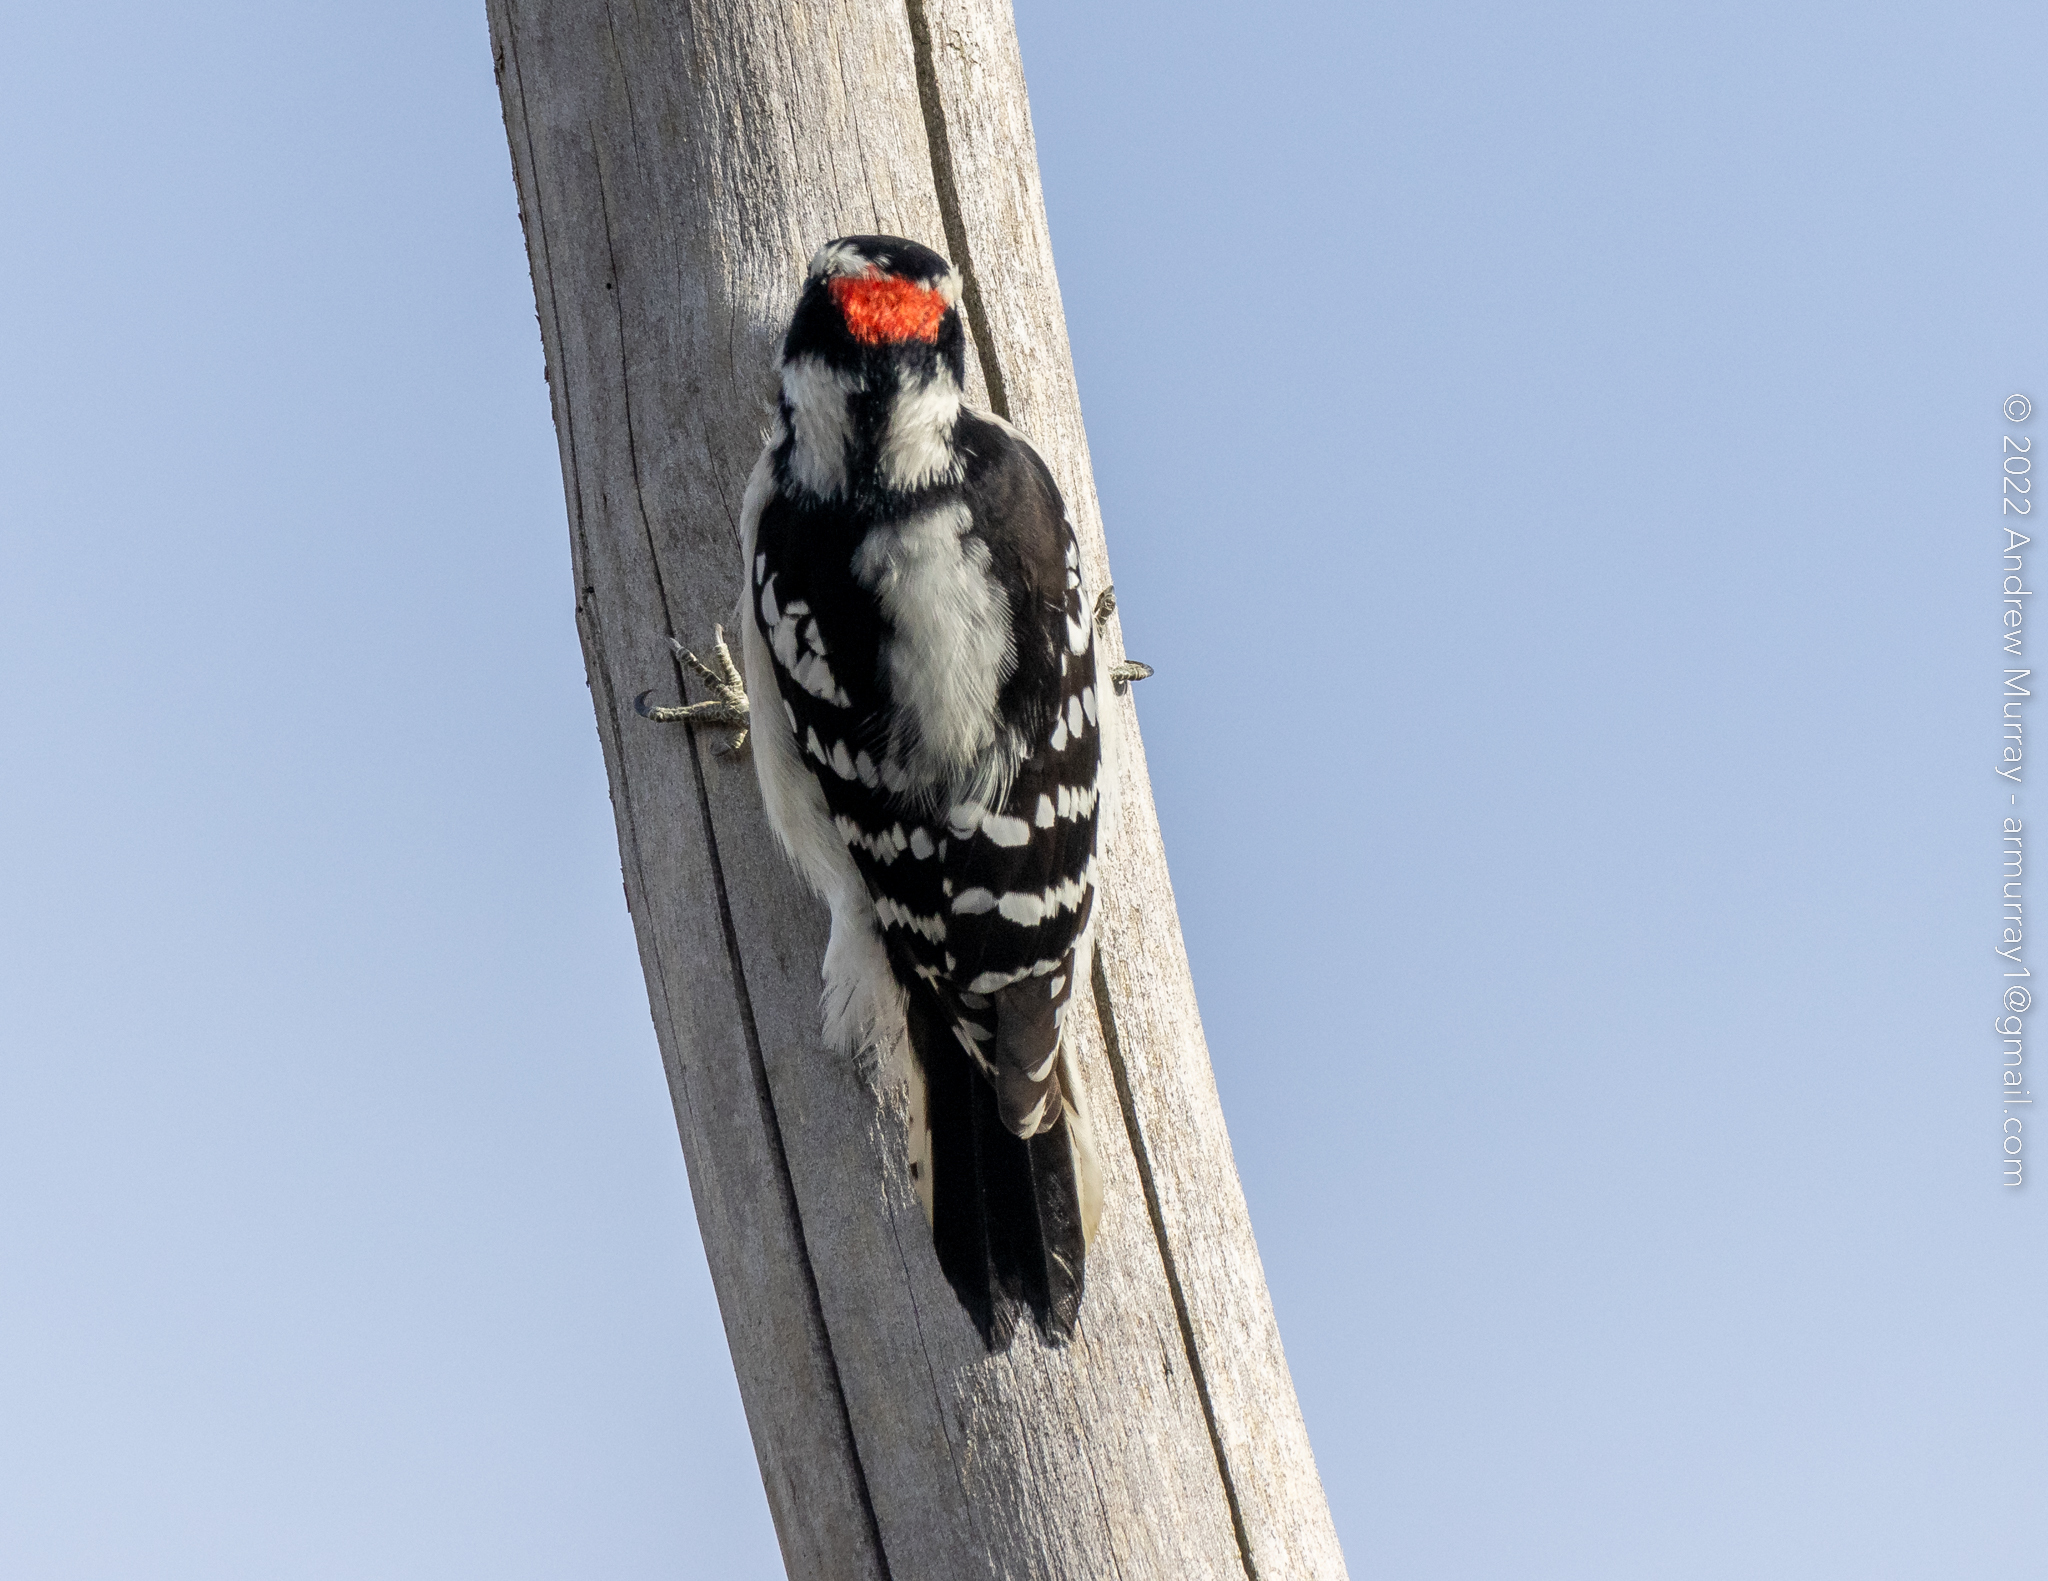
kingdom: Animalia
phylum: Chordata
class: Aves
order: Piciformes
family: Picidae
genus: Dryobates
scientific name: Dryobates pubescens
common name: Downy woodpecker
